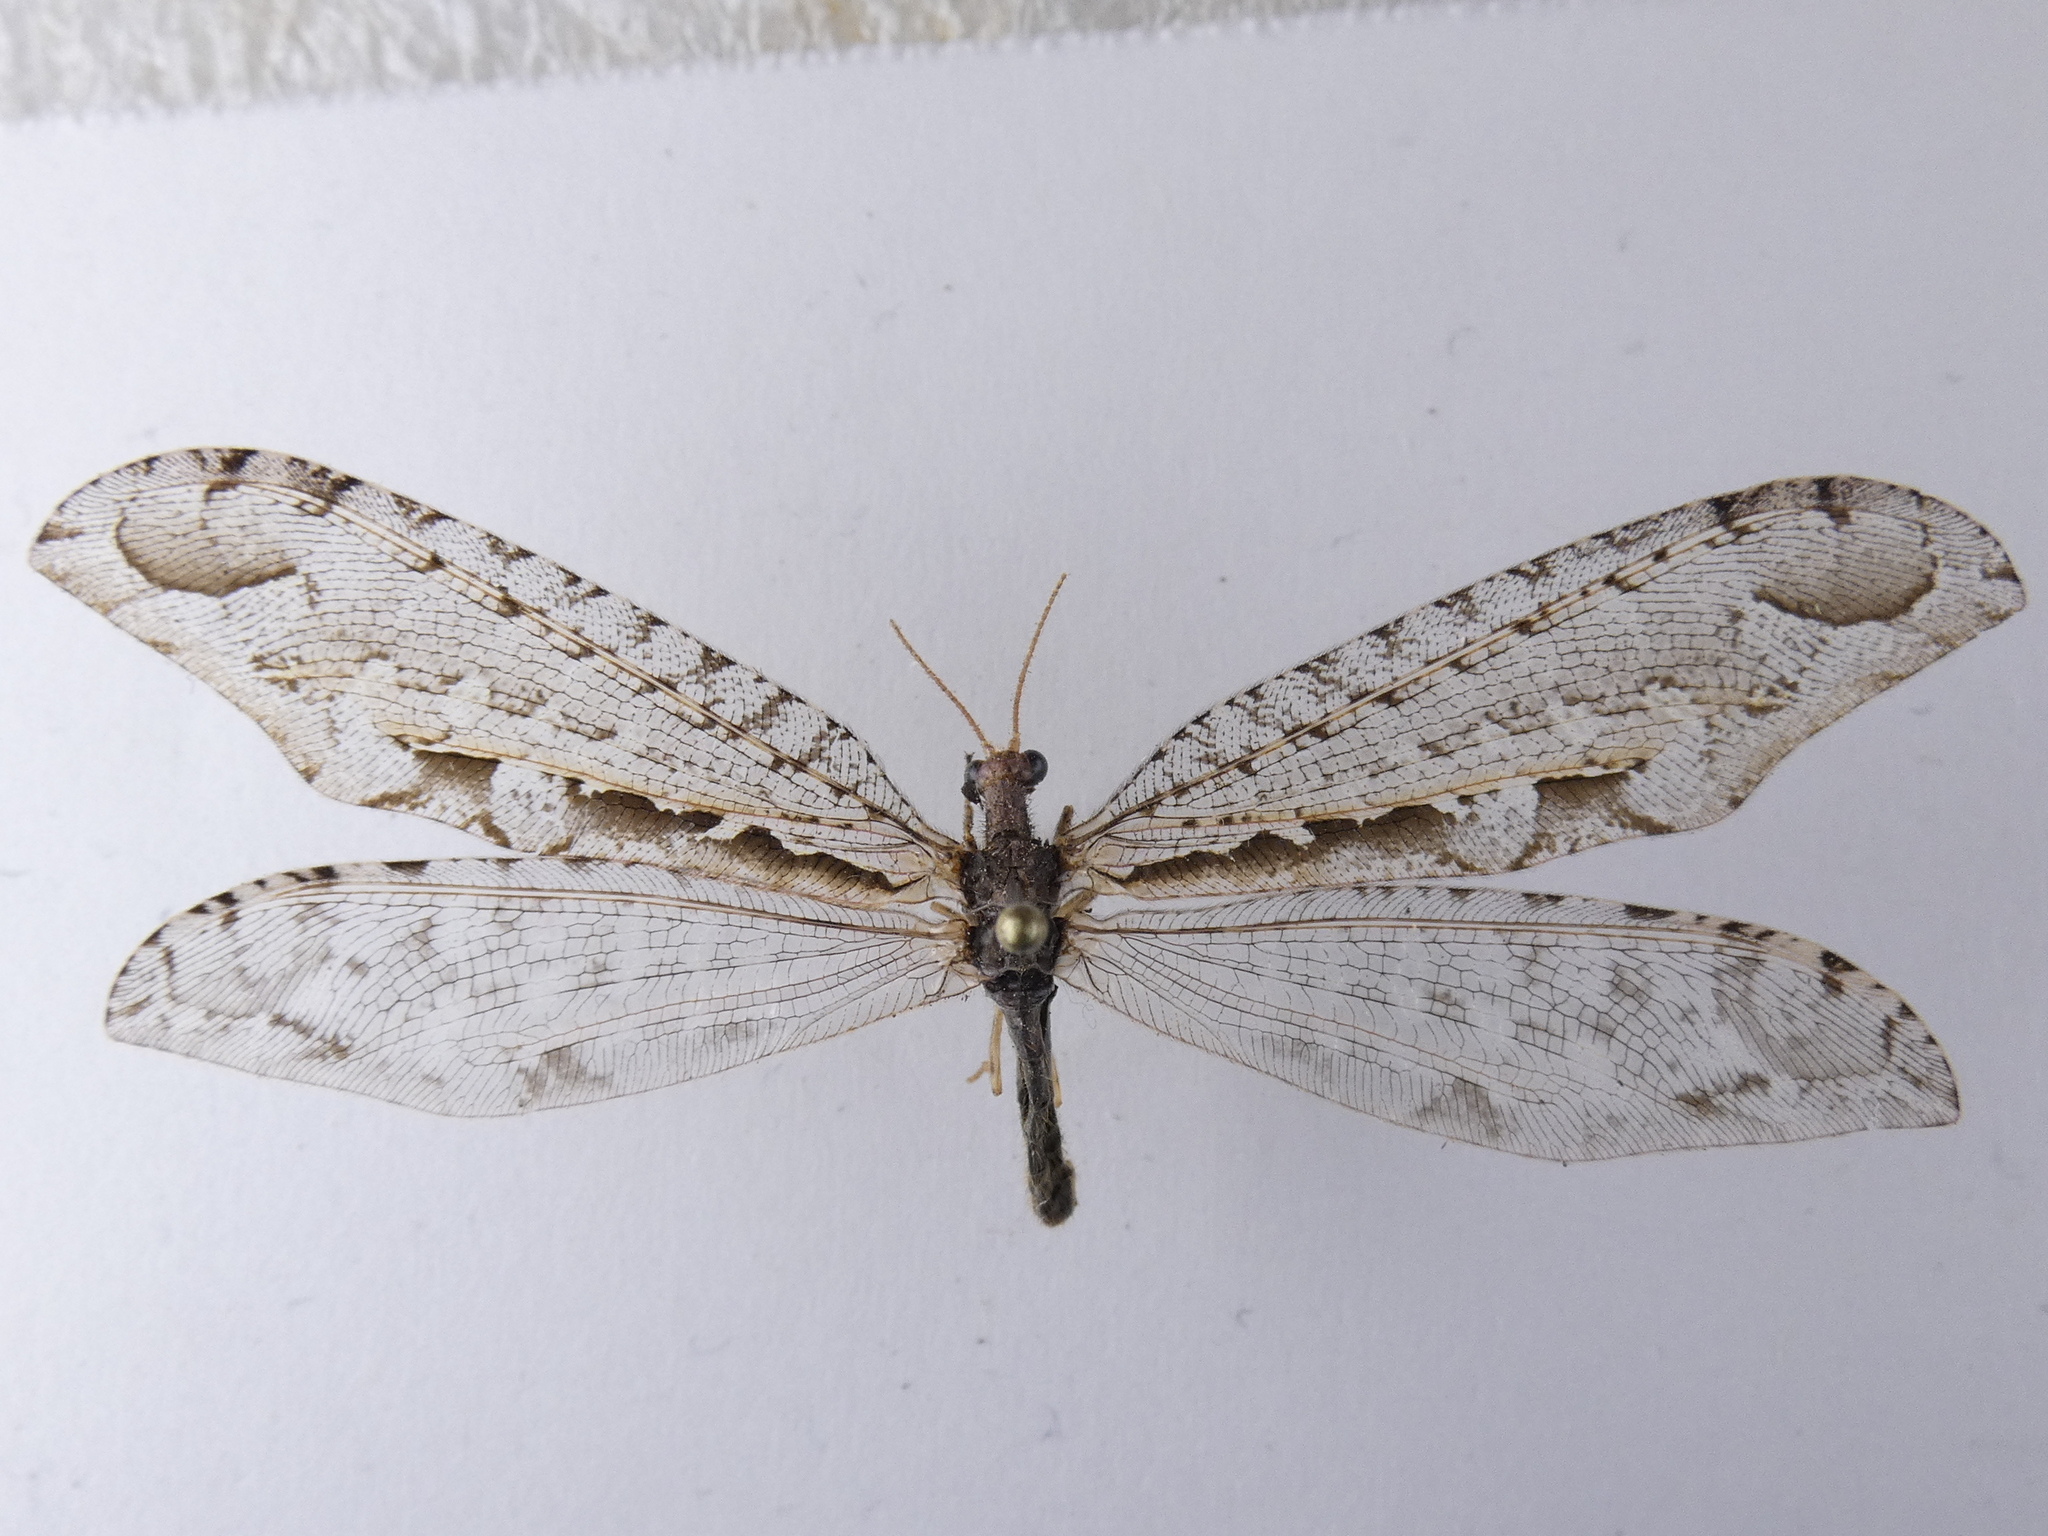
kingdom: Animalia
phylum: Arthropoda
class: Insecta
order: Neuroptera
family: Osmylidae
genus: Kempynus
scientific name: Kempynus incisus
